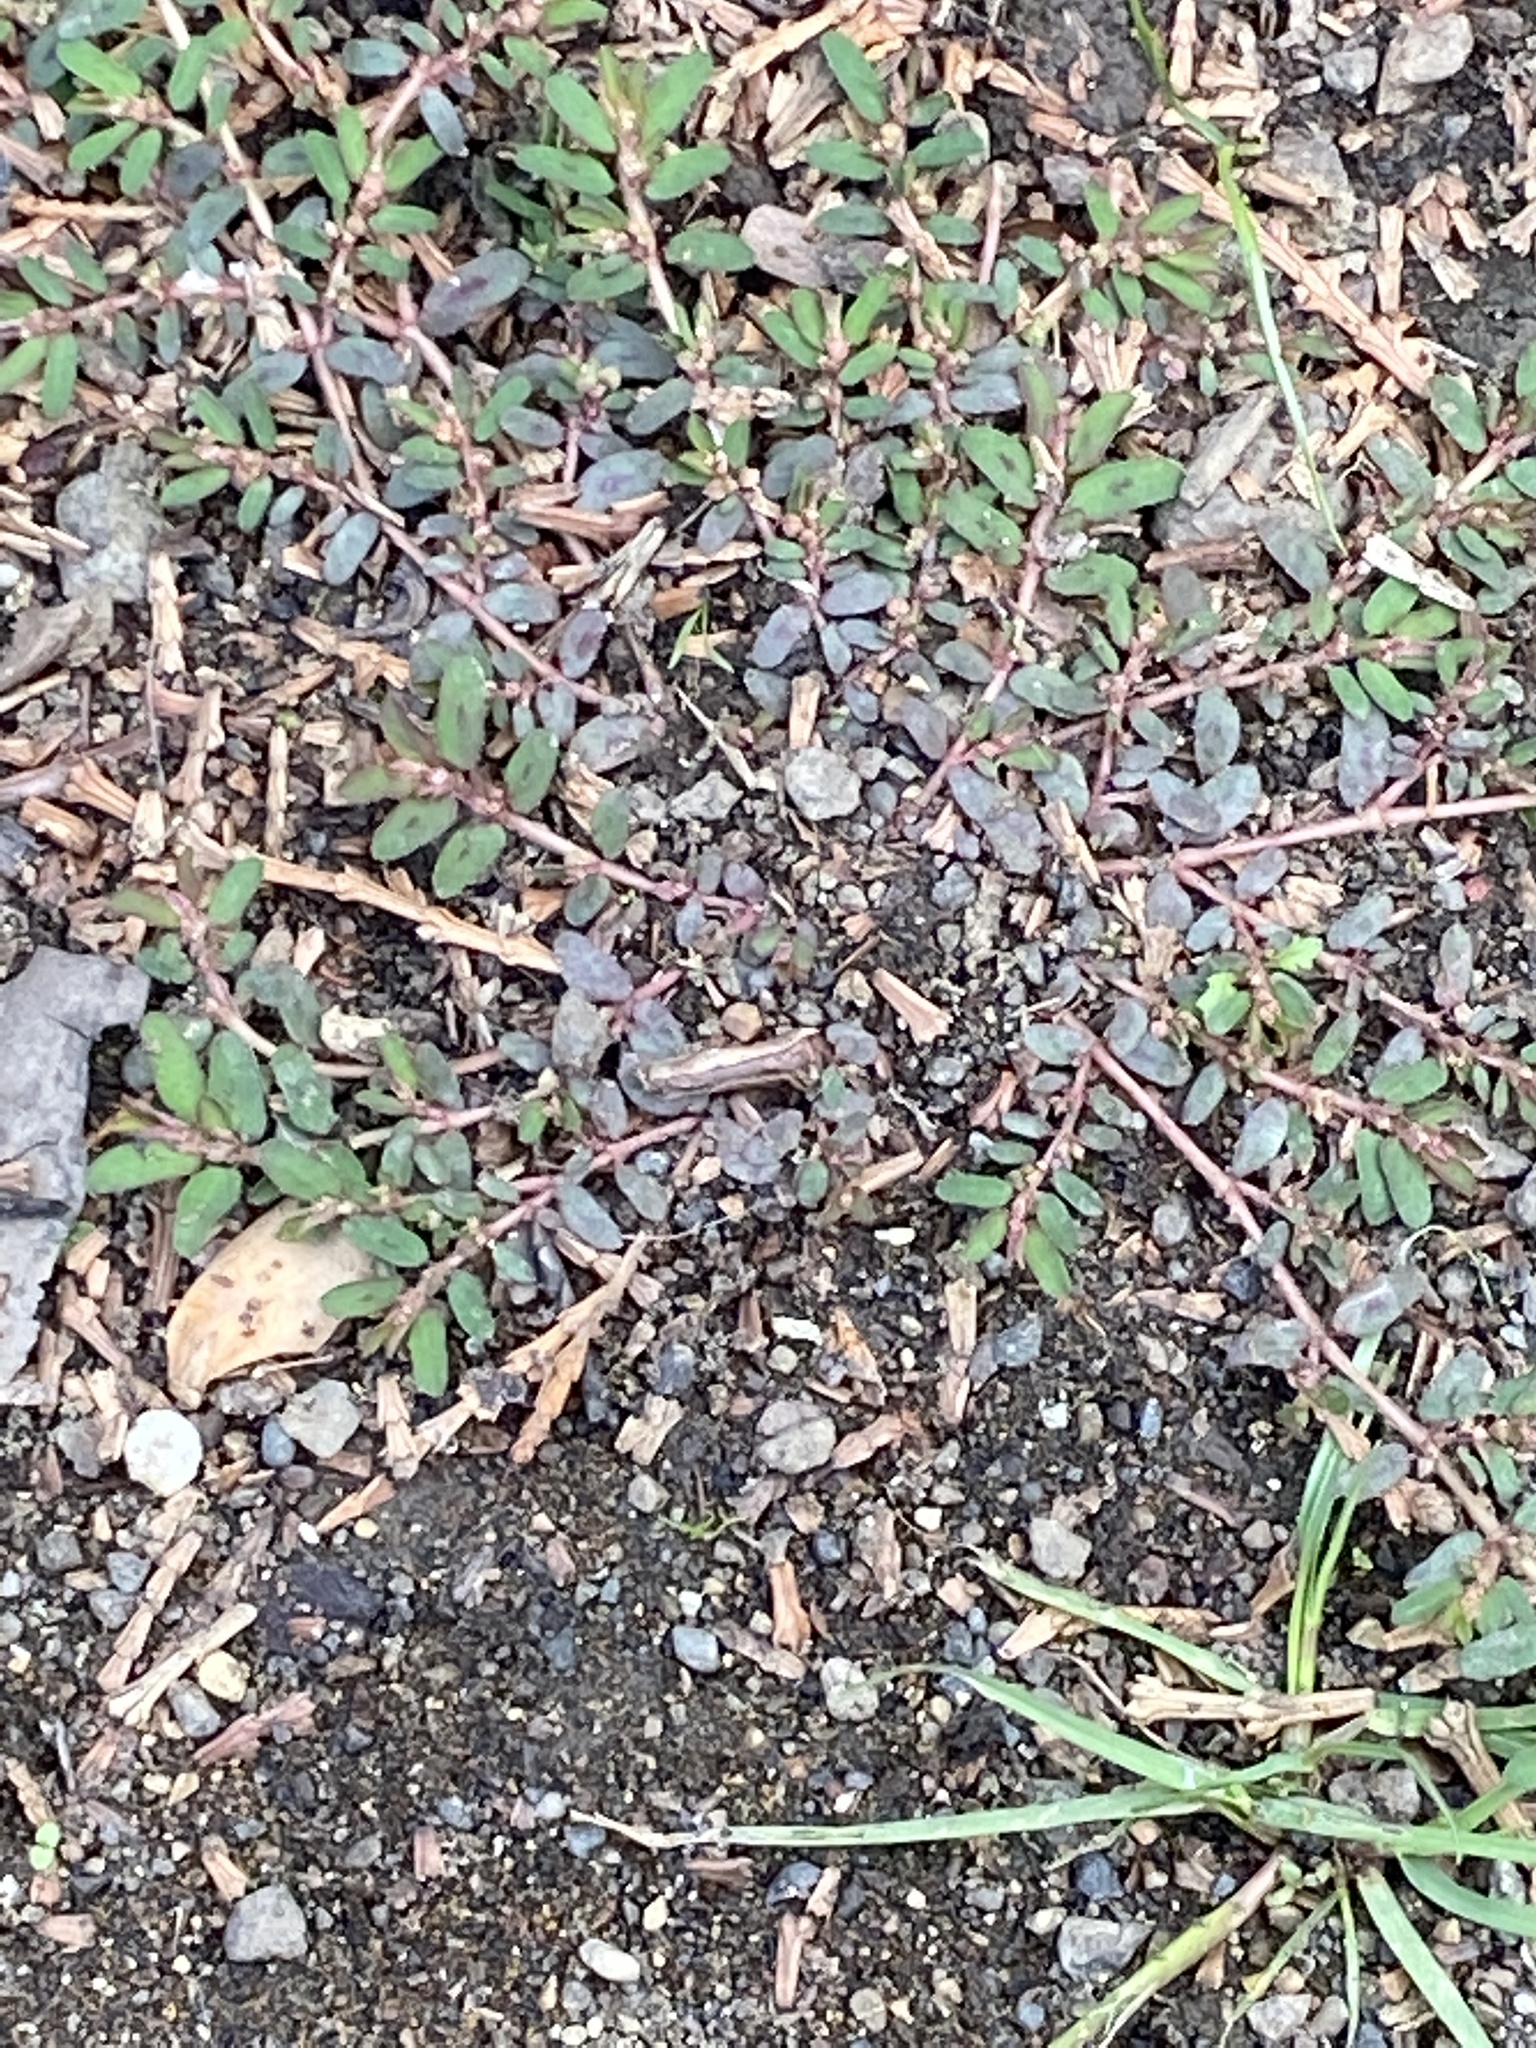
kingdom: Plantae
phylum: Tracheophyta
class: Magnoliopsida
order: Malpighiales
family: Euphorbiaceae
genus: Euphorbia
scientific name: Euphorbia maculata
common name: Spotted spurge
